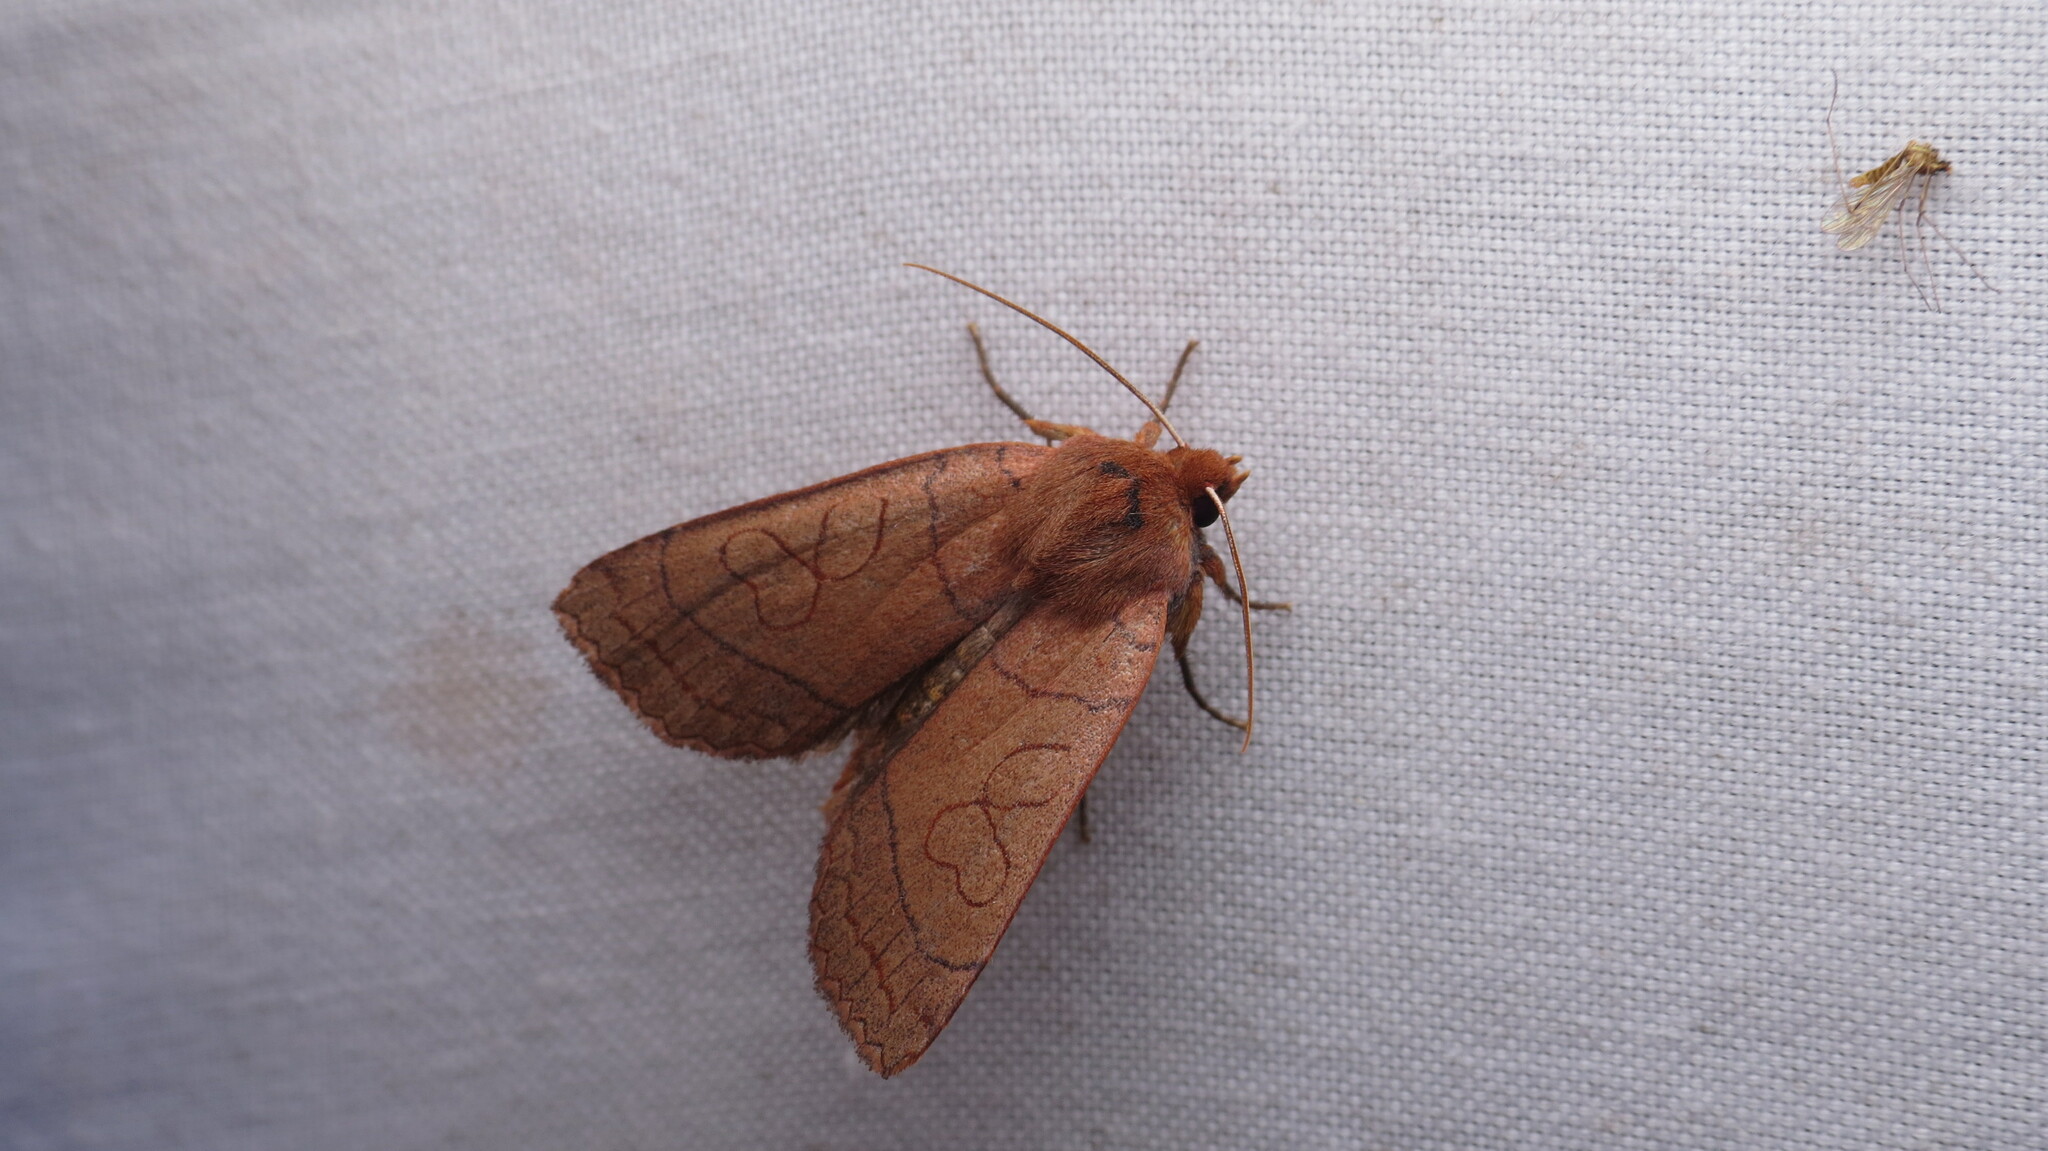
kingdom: Animalia
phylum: Arthropoda
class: Insecta
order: Lepidoptera
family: Noctuidae
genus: Metaxaglaea
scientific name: Metaxaglaea inulta
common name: Unsated sallow
